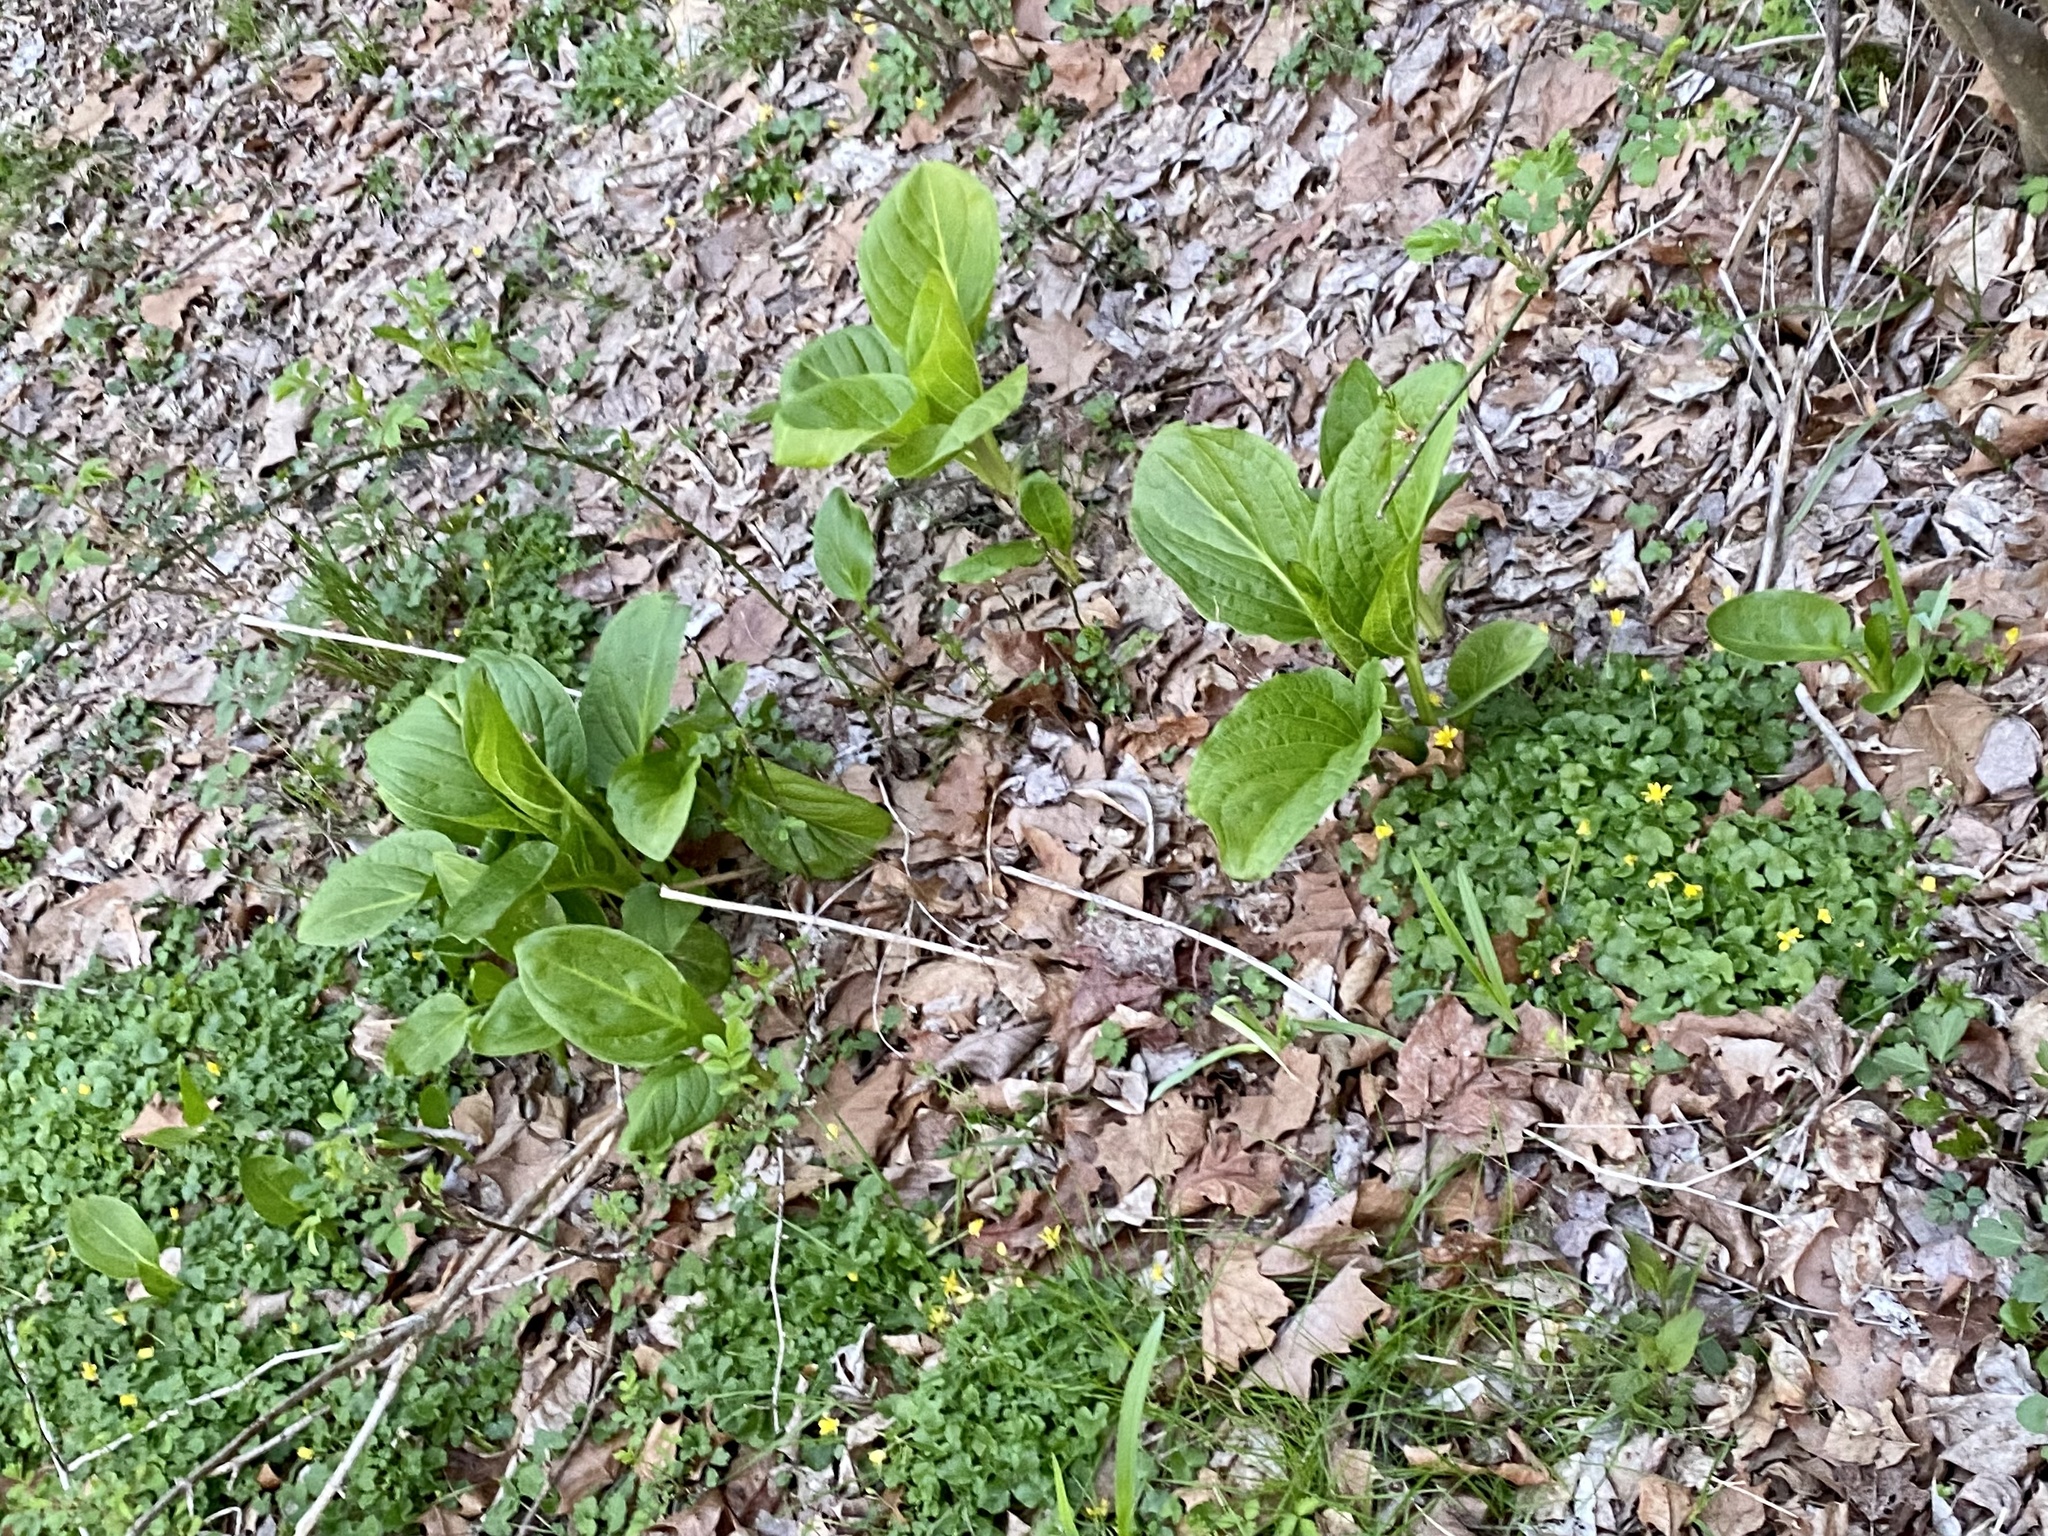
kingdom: Plantae
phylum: Tracheophyta
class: Liliopsida
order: Alismatales
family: Araceae
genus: Symplocarpus
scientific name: Symplocarpus foetidus
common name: Eastern skunk cabbage
